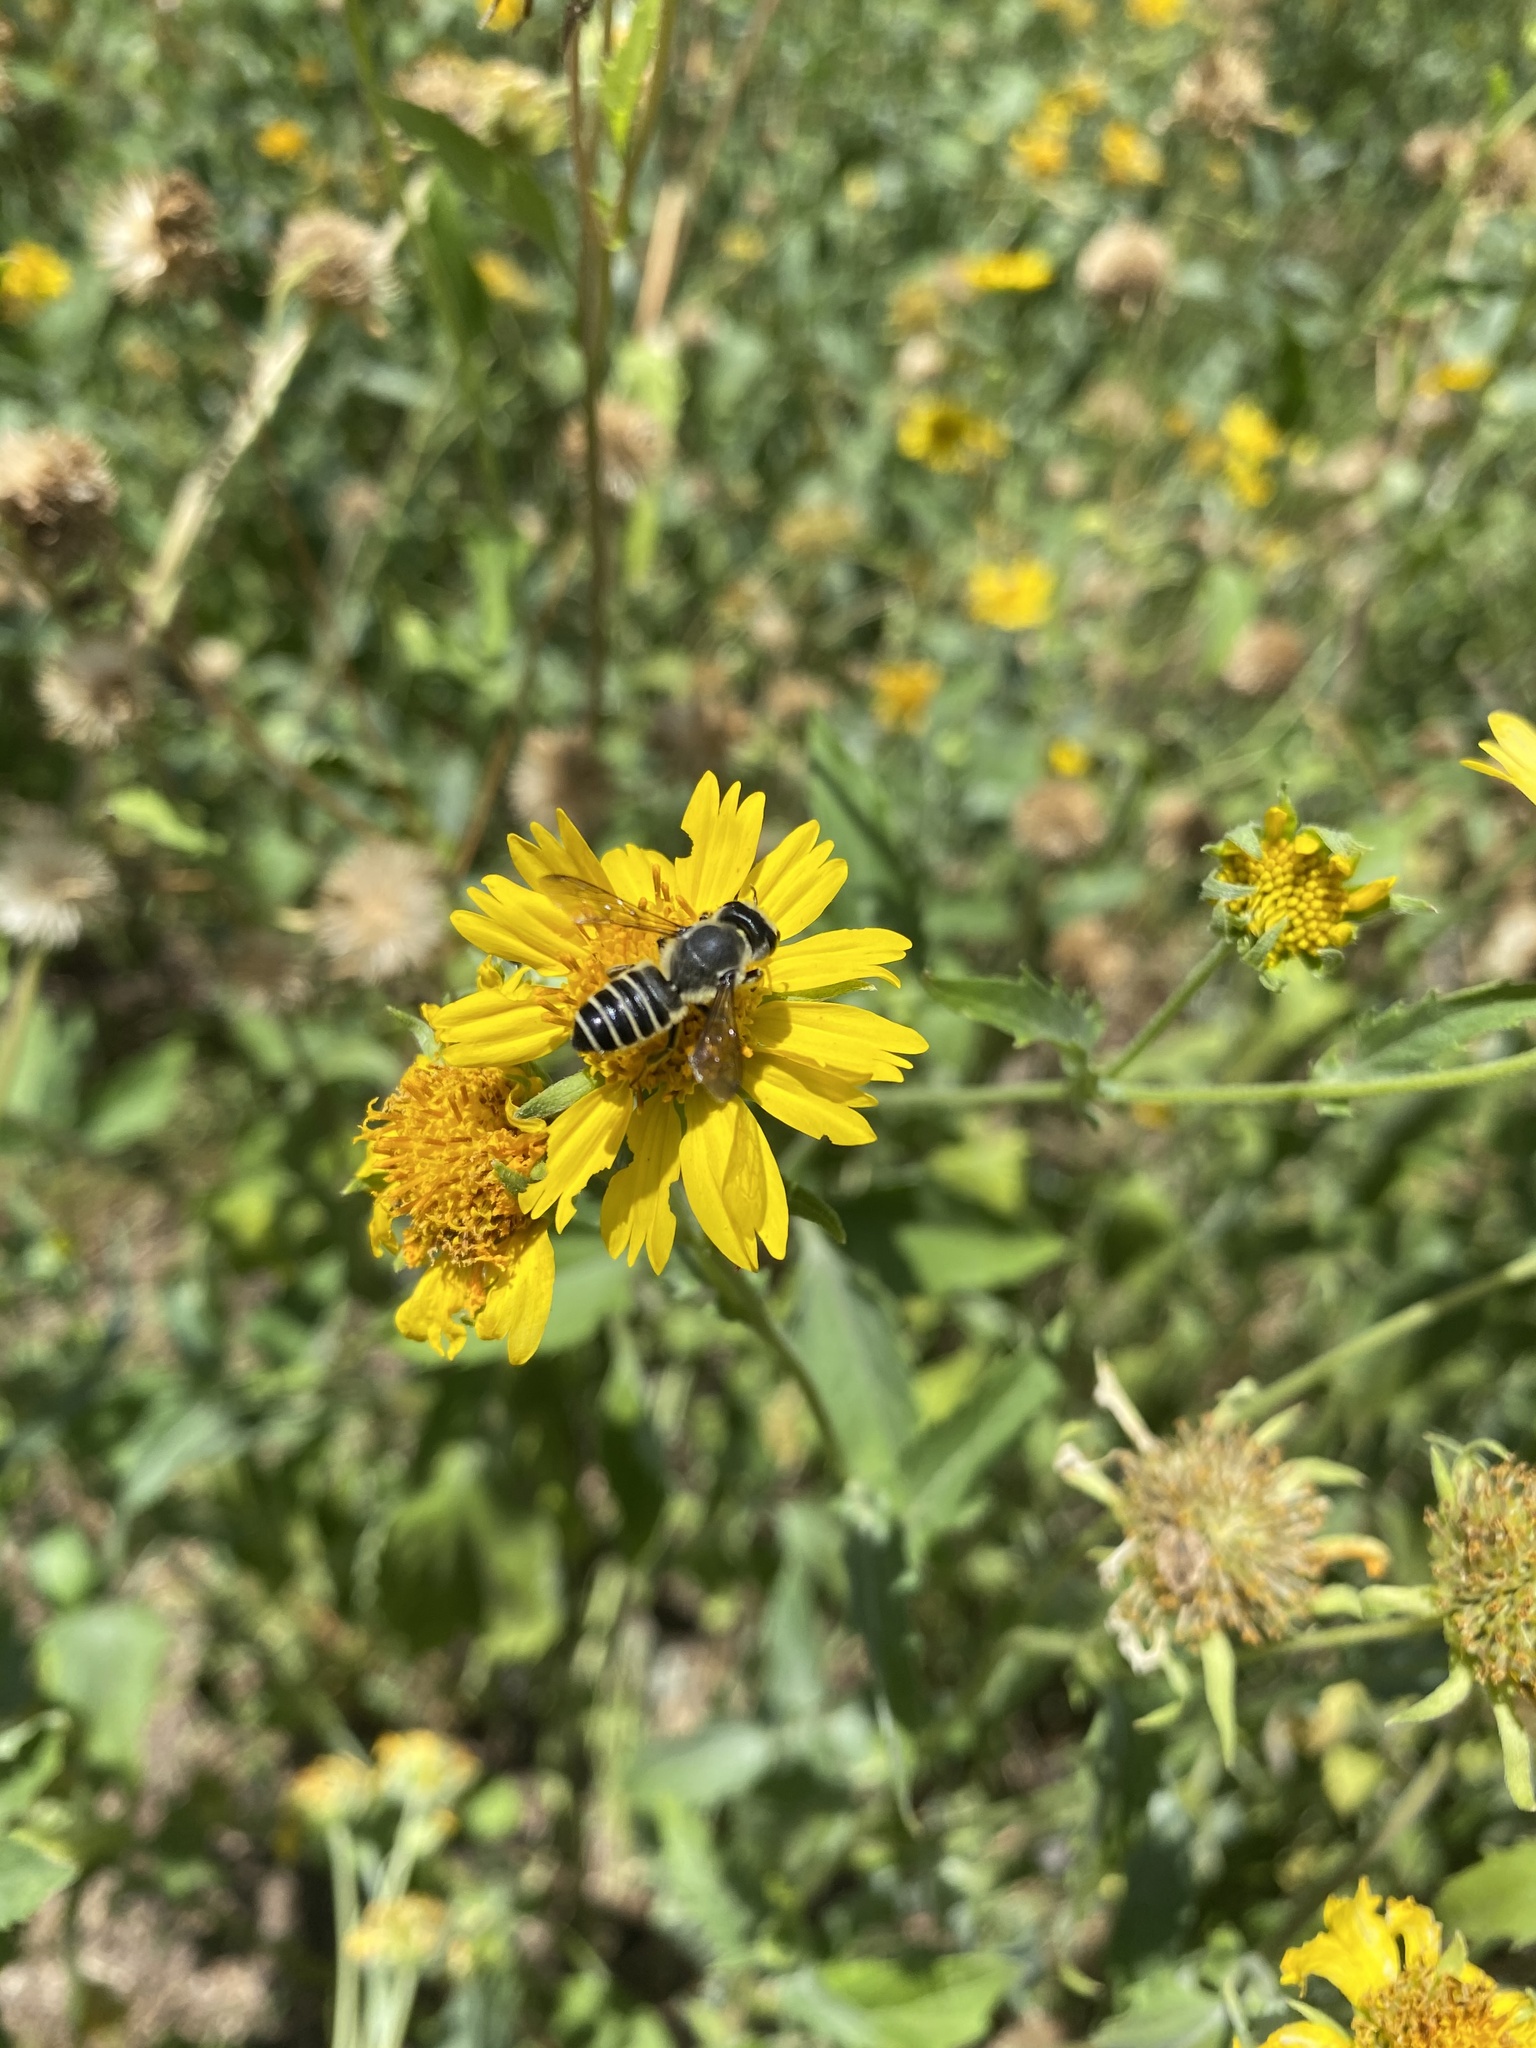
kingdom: Animalia
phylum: Arthropoda
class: Insecta
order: Hymenoptera
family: Megachilidae
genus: Megachile
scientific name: Megachile policaris
